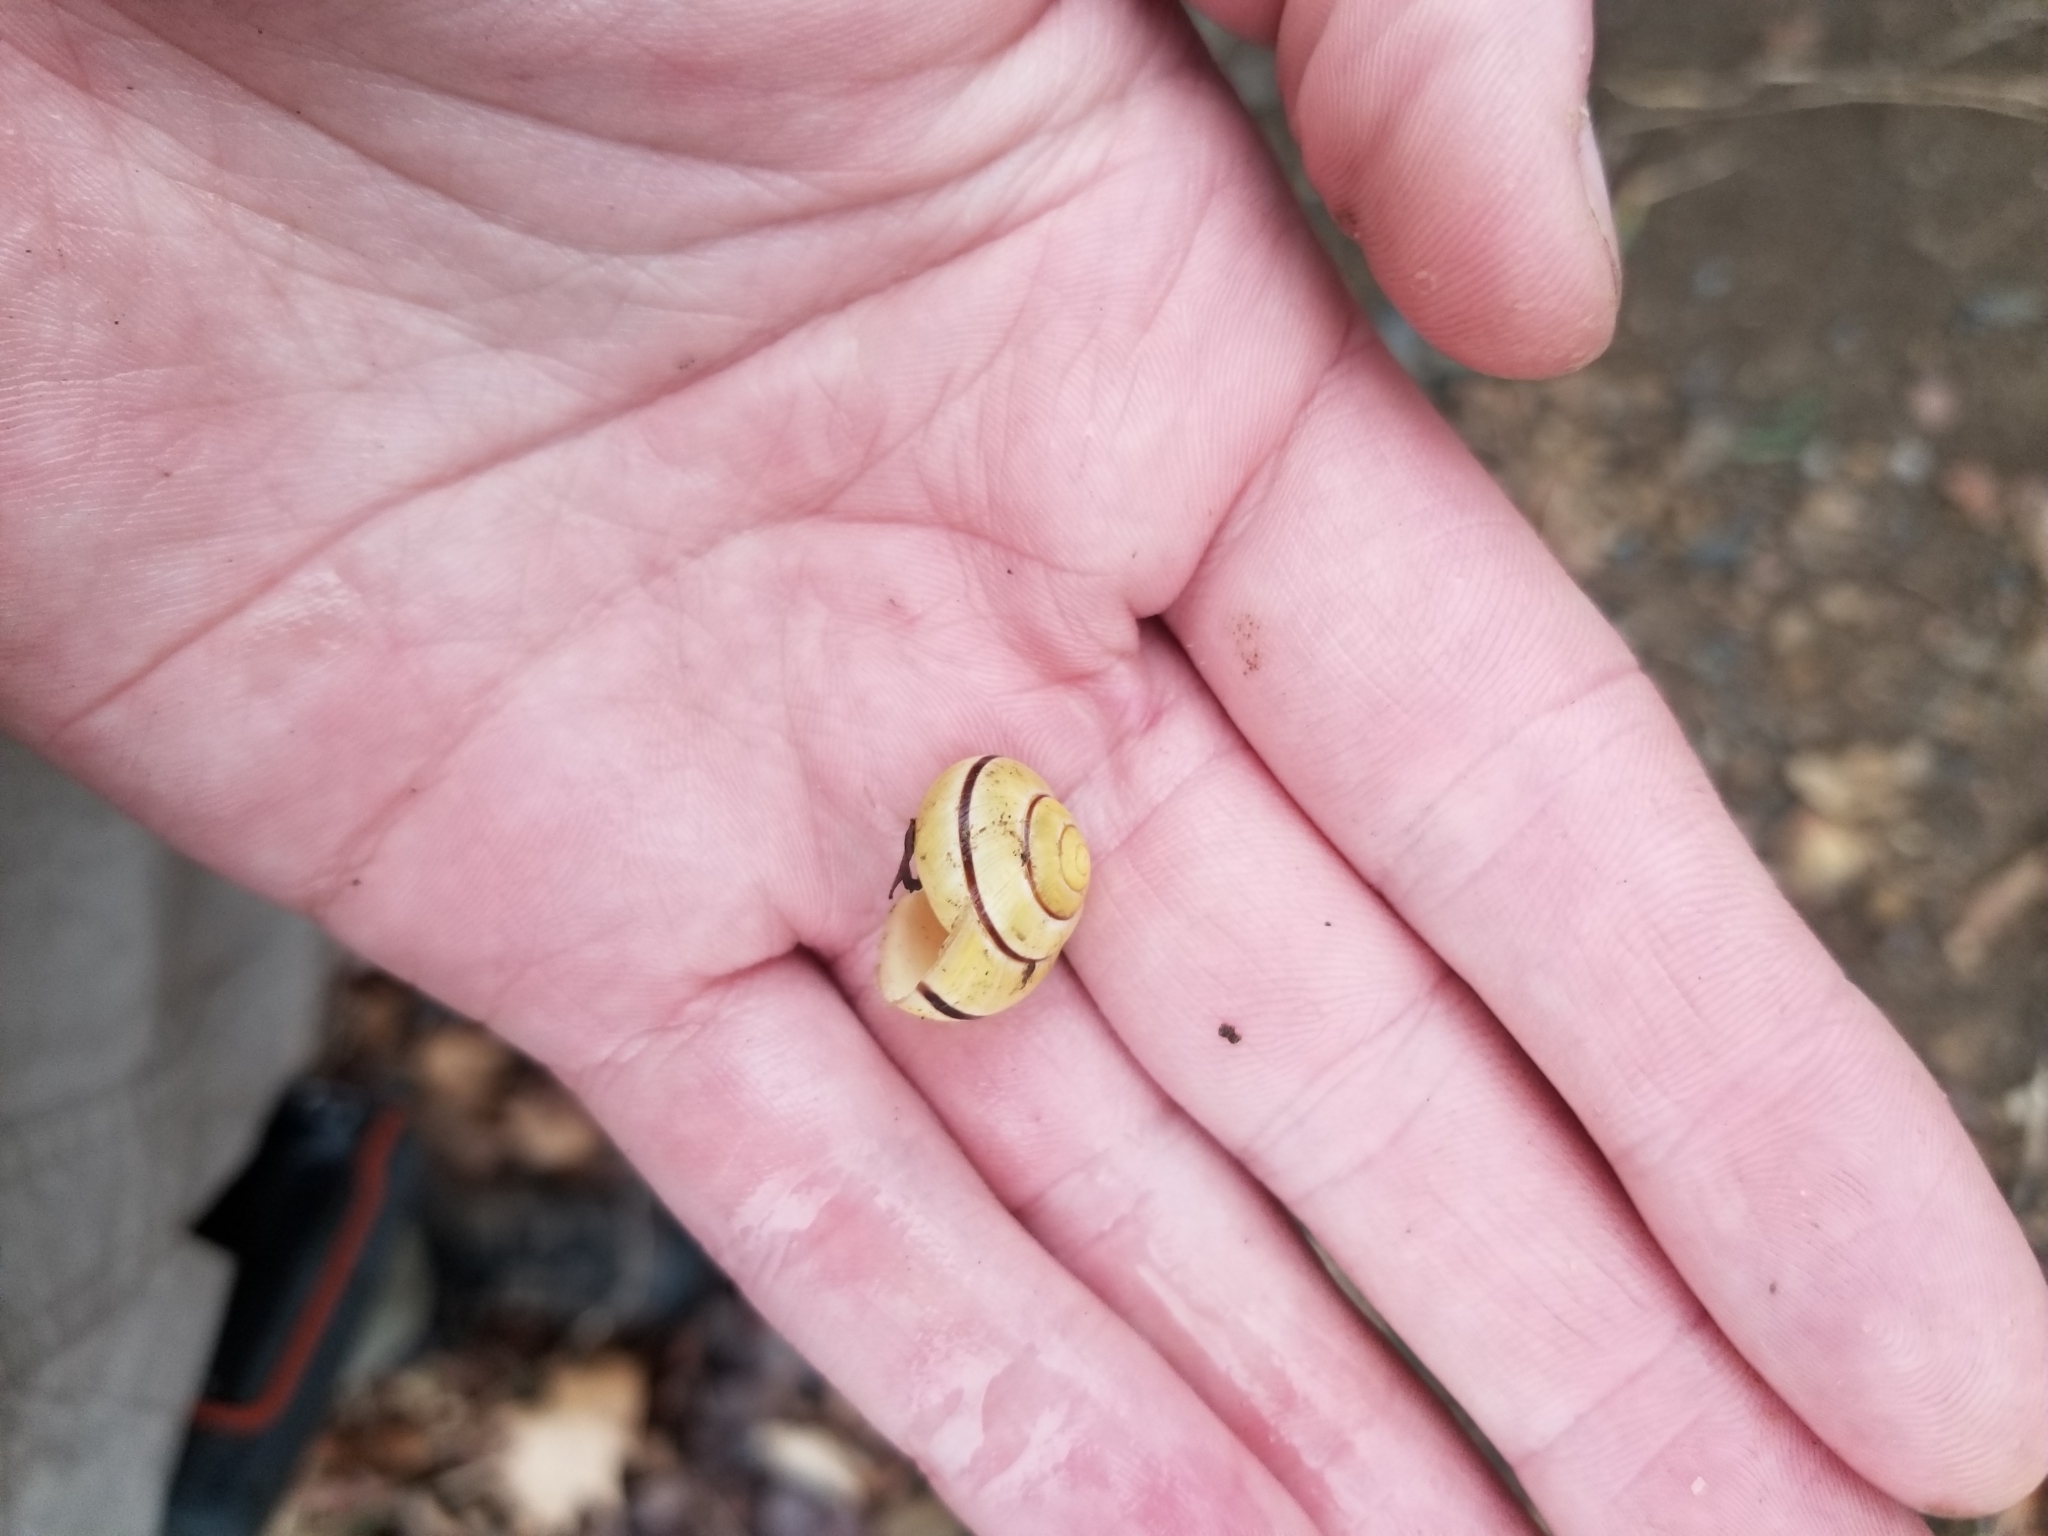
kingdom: Animalia
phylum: Mollusca
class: Gastropoda
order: Stylommatophora
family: Helicidae
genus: Cepaea
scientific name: Cepaea nemoralis
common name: Grovesnail
